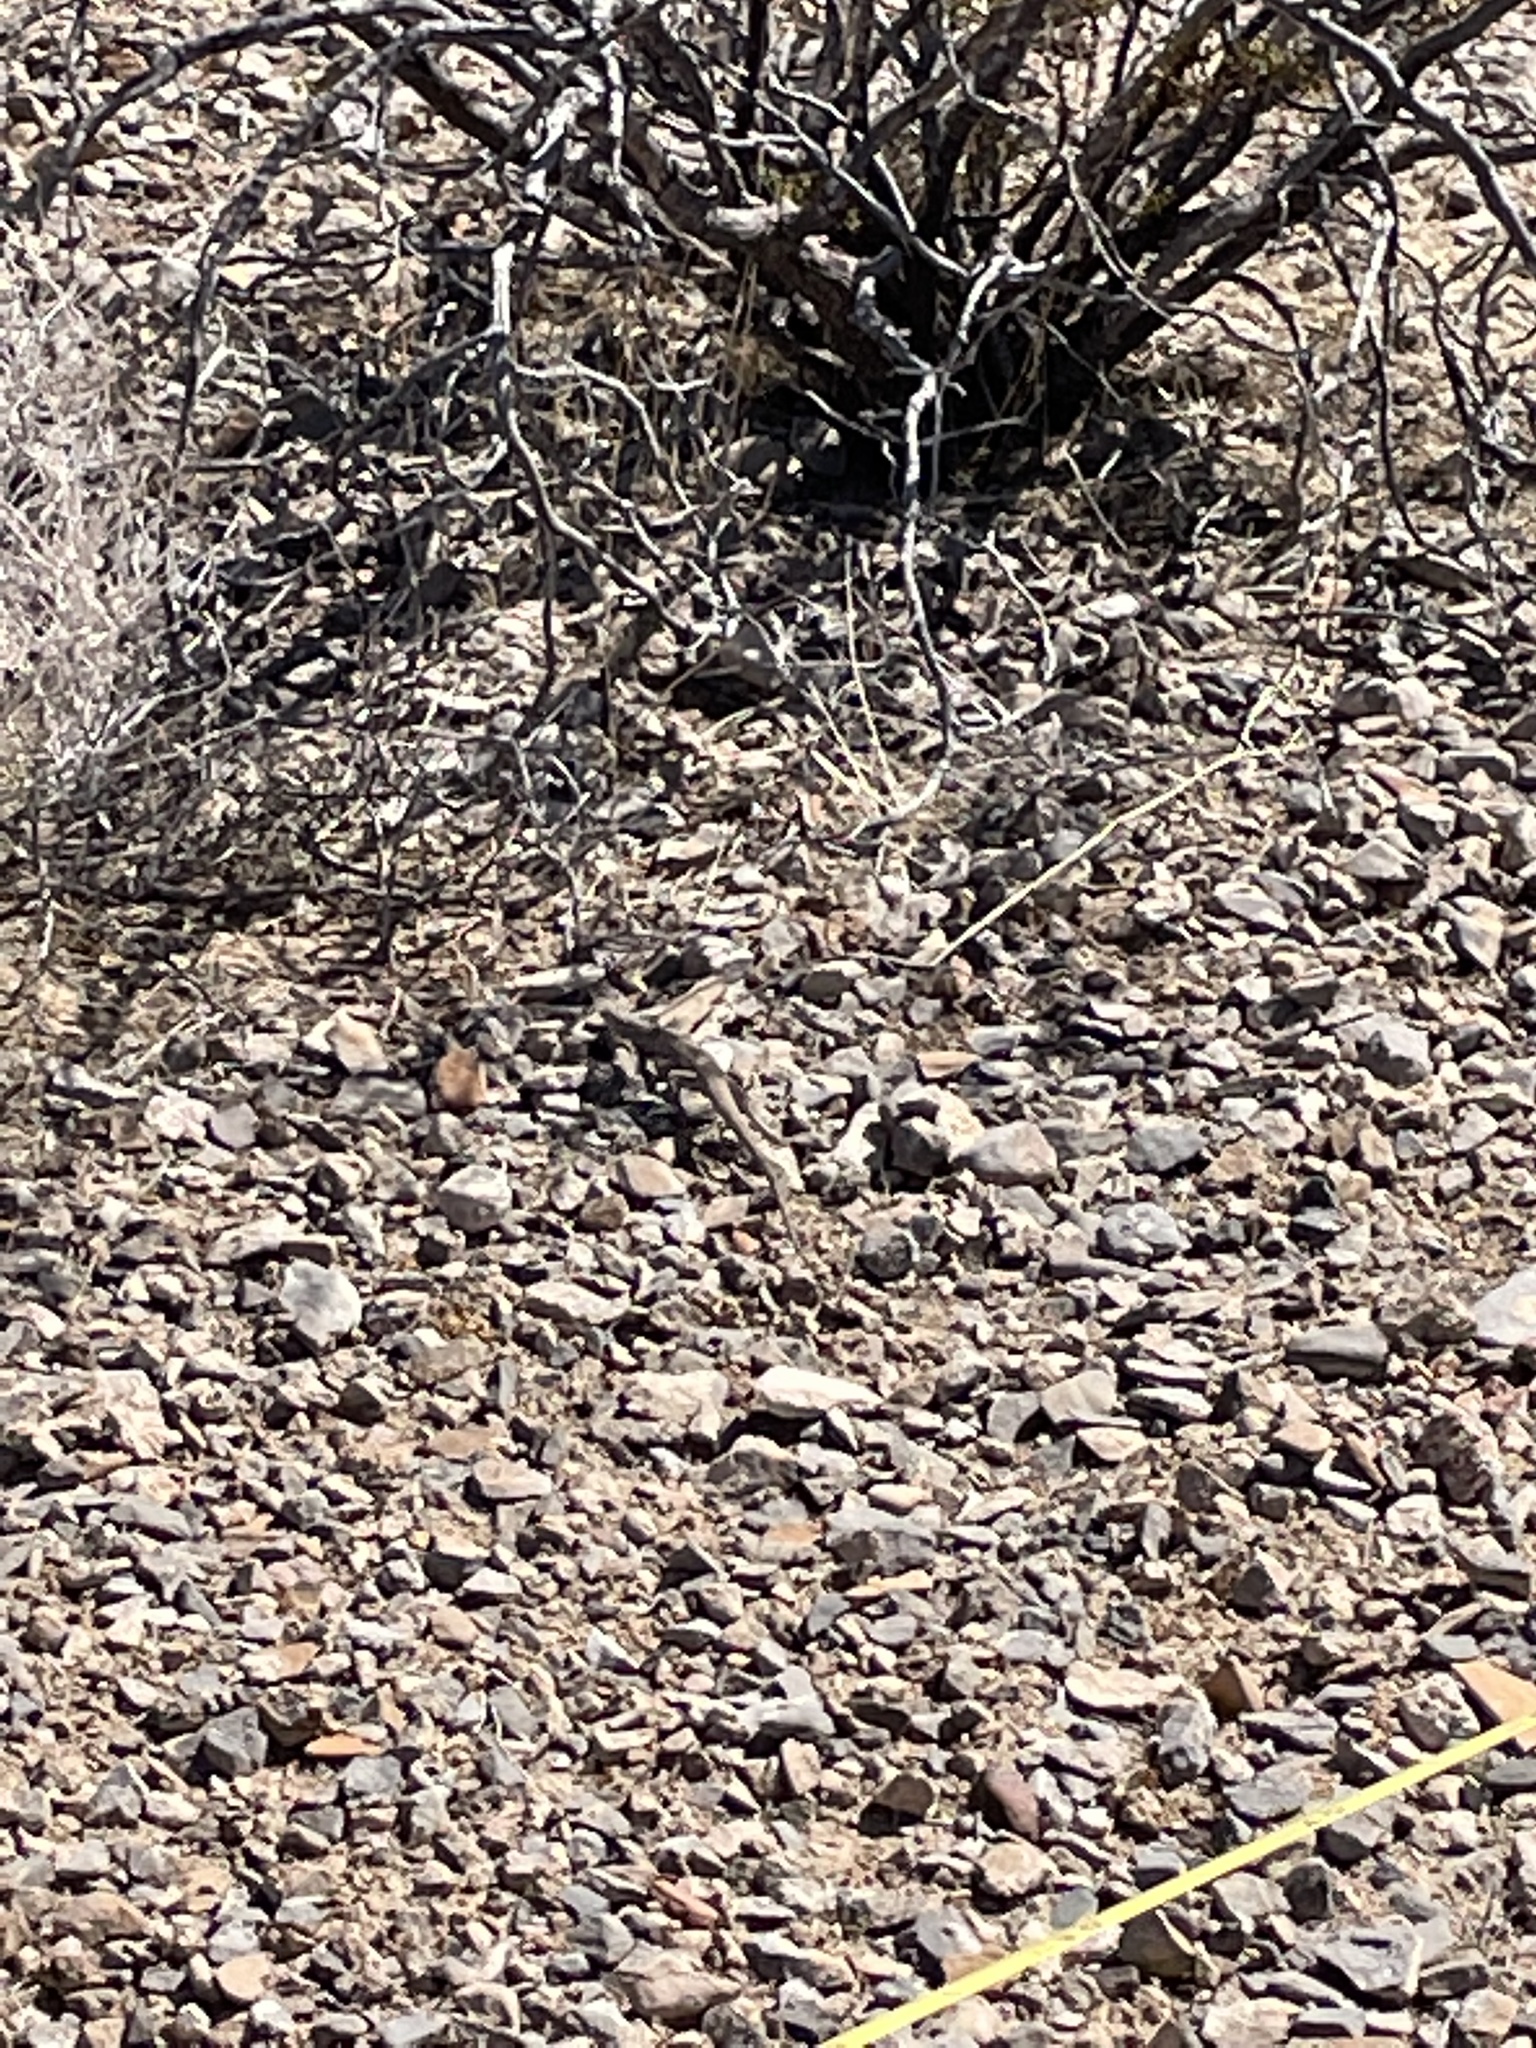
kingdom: Animalia
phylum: Chordata
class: Squamata
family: Teiidae
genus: Aspidoscelis
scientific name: Aspidoscelis tigris
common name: Tiger whiptail
